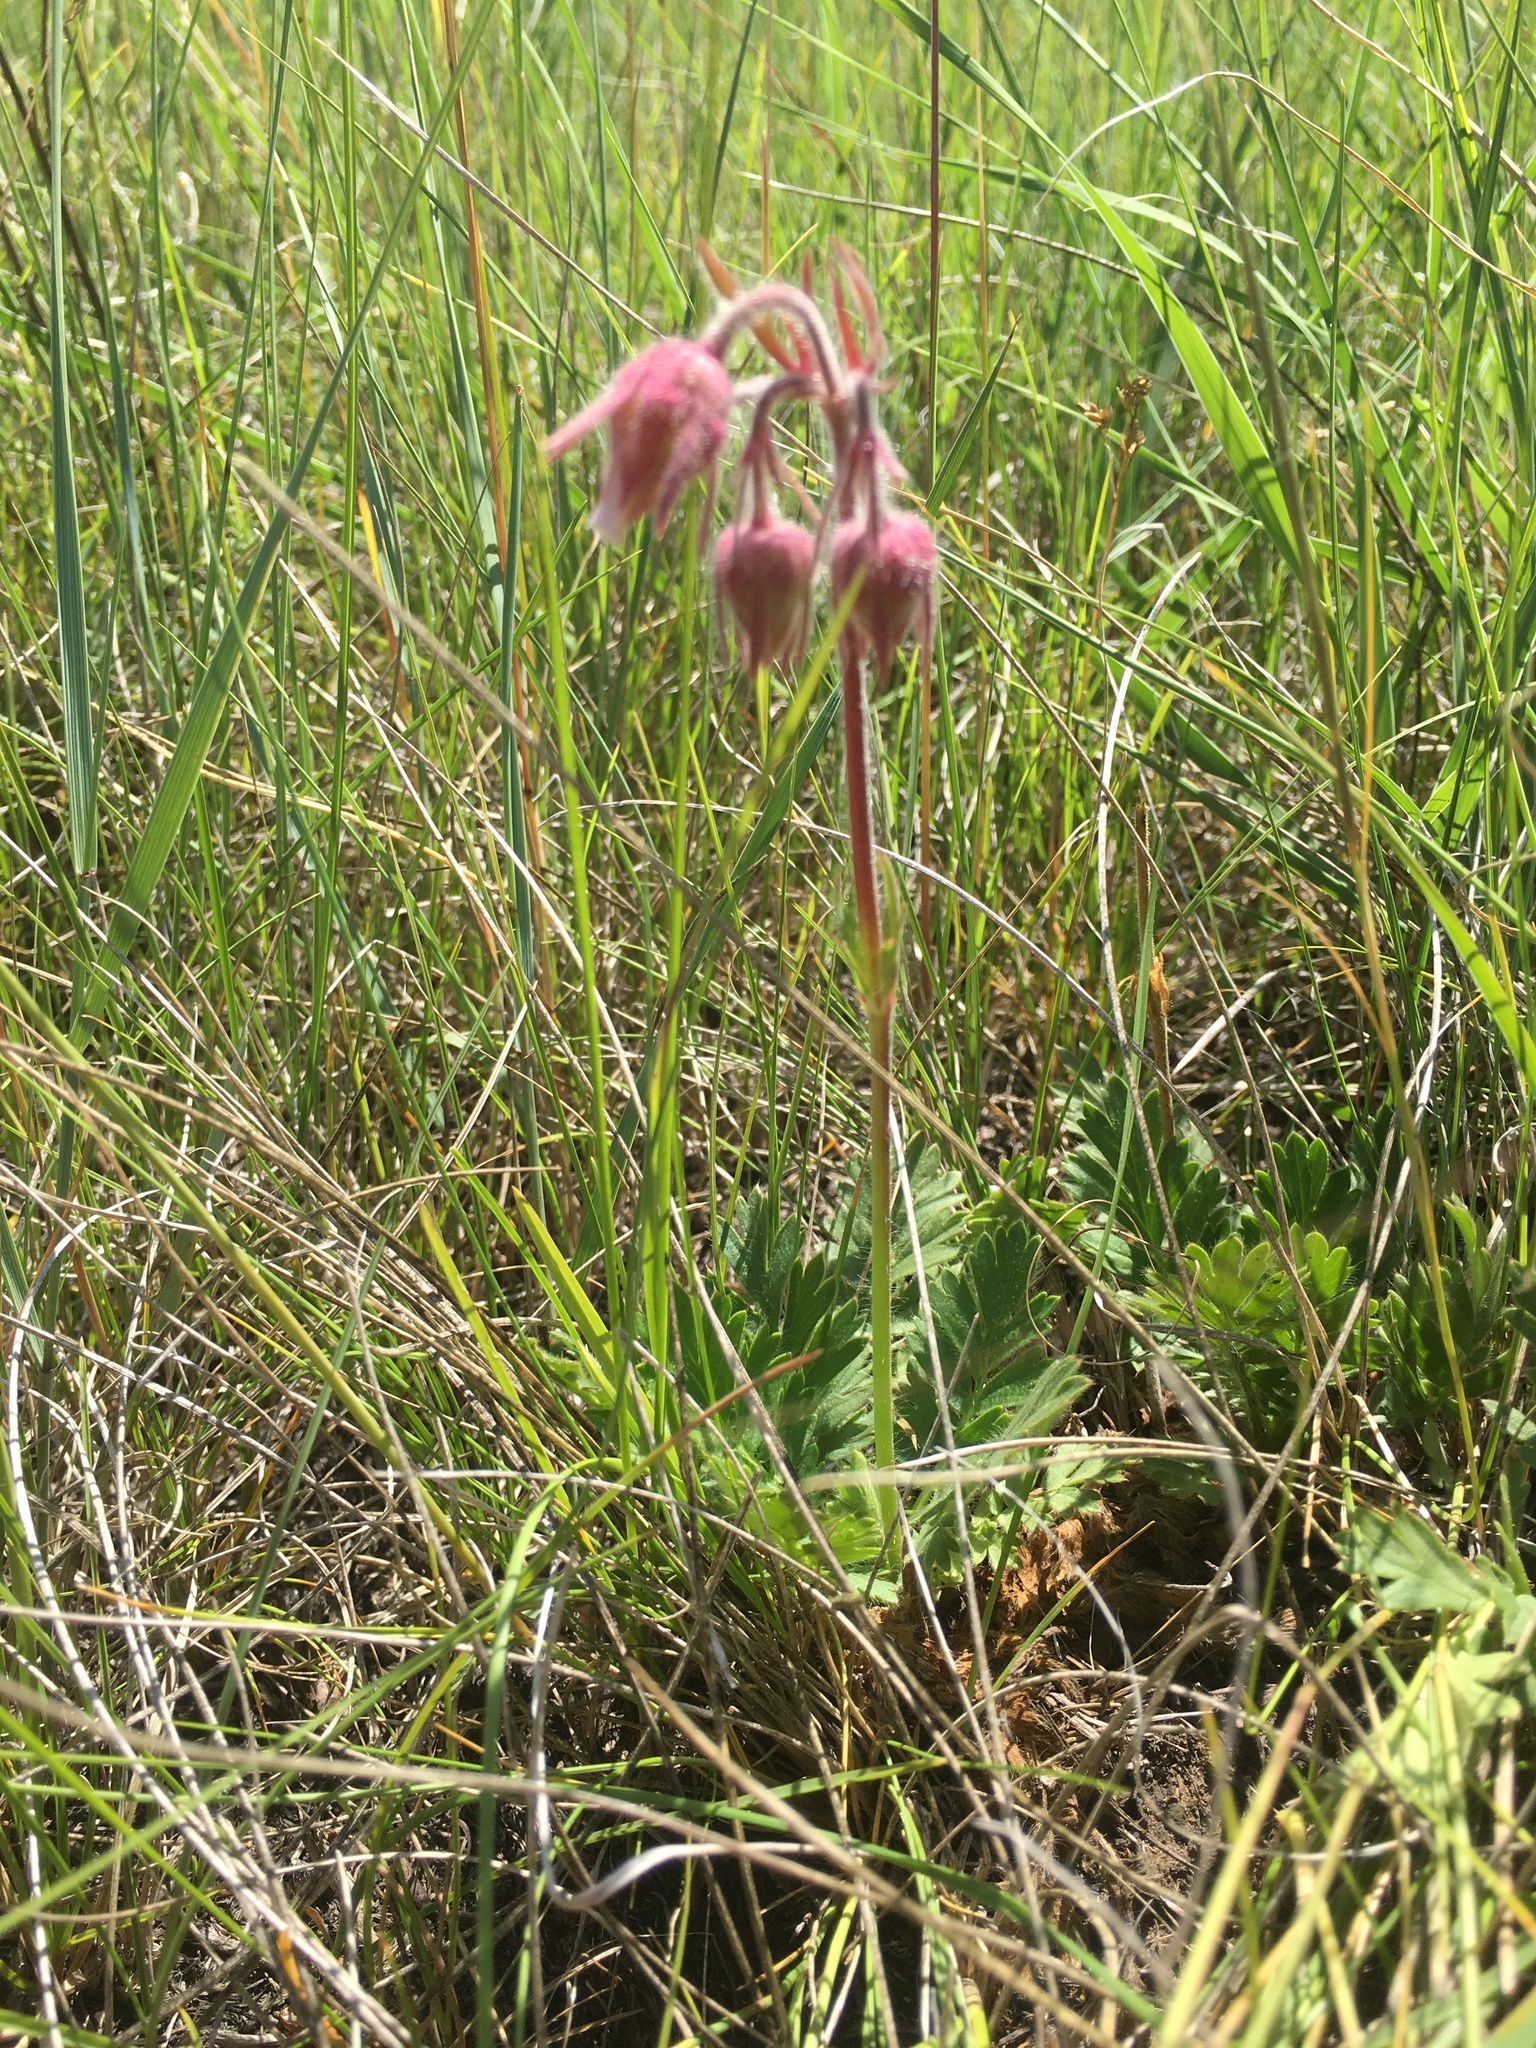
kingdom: Plantae
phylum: Tracheophyta
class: Magnoliopsida
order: Rosales
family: Rosaceae
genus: Geum
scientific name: Geum triflorum
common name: Old man's whiskers
